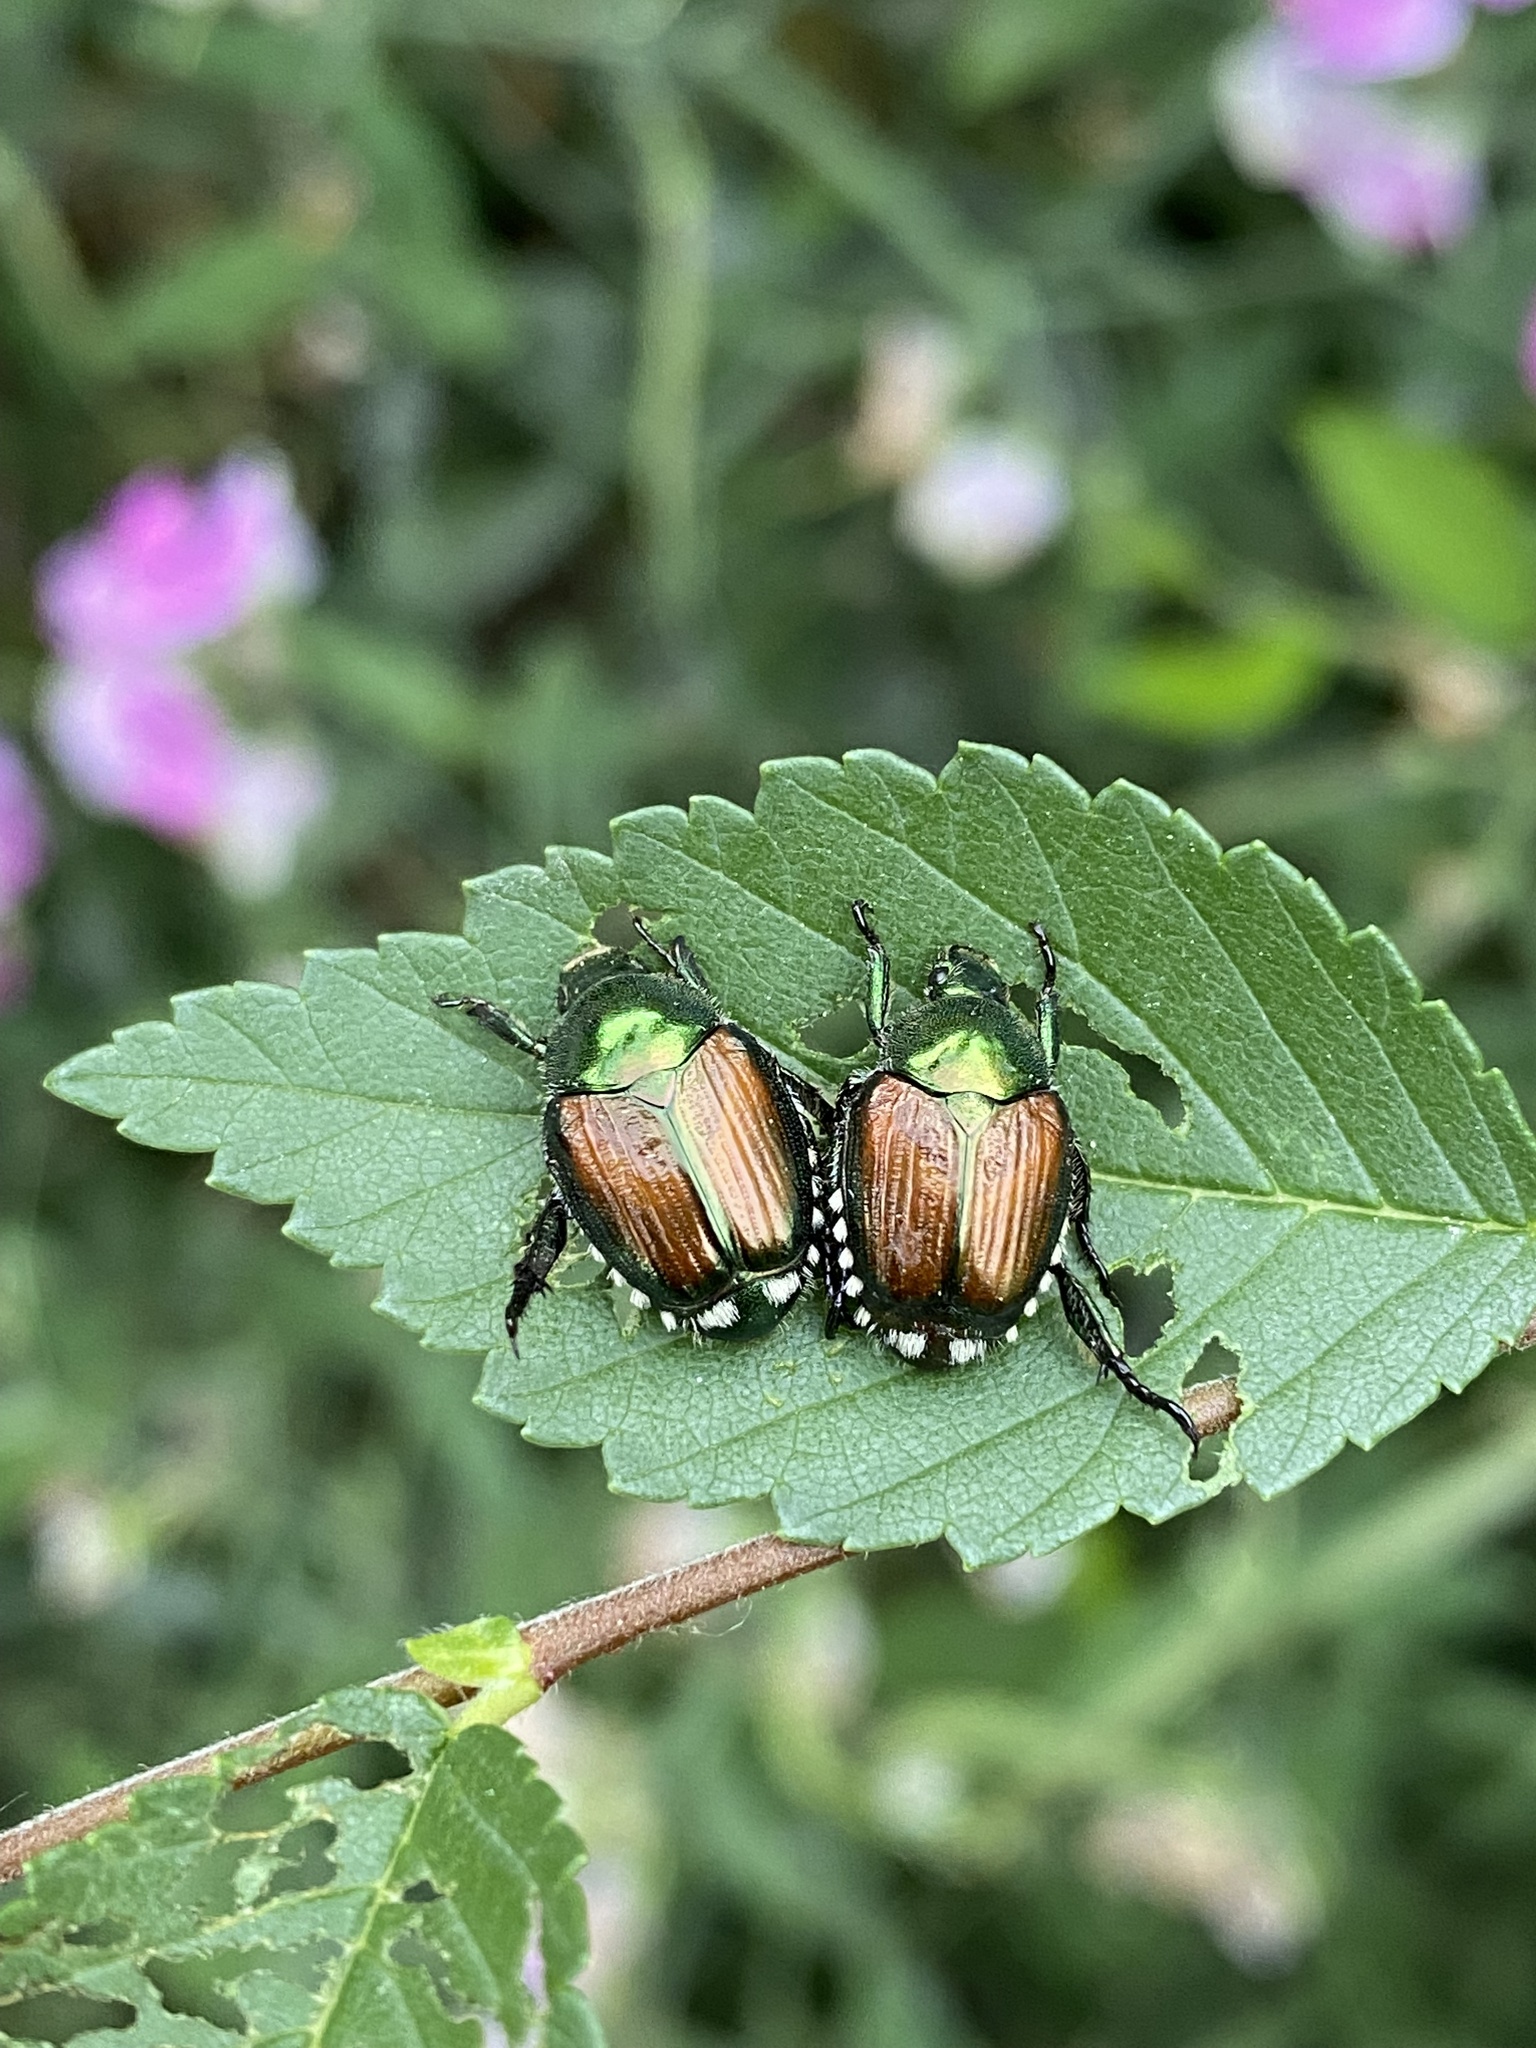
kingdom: Animalia
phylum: Arthropoda
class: Insecta
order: Coleoptera
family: Scarabaeidae
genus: Popillia
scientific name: Popillia japonica
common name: Japanese beetle
